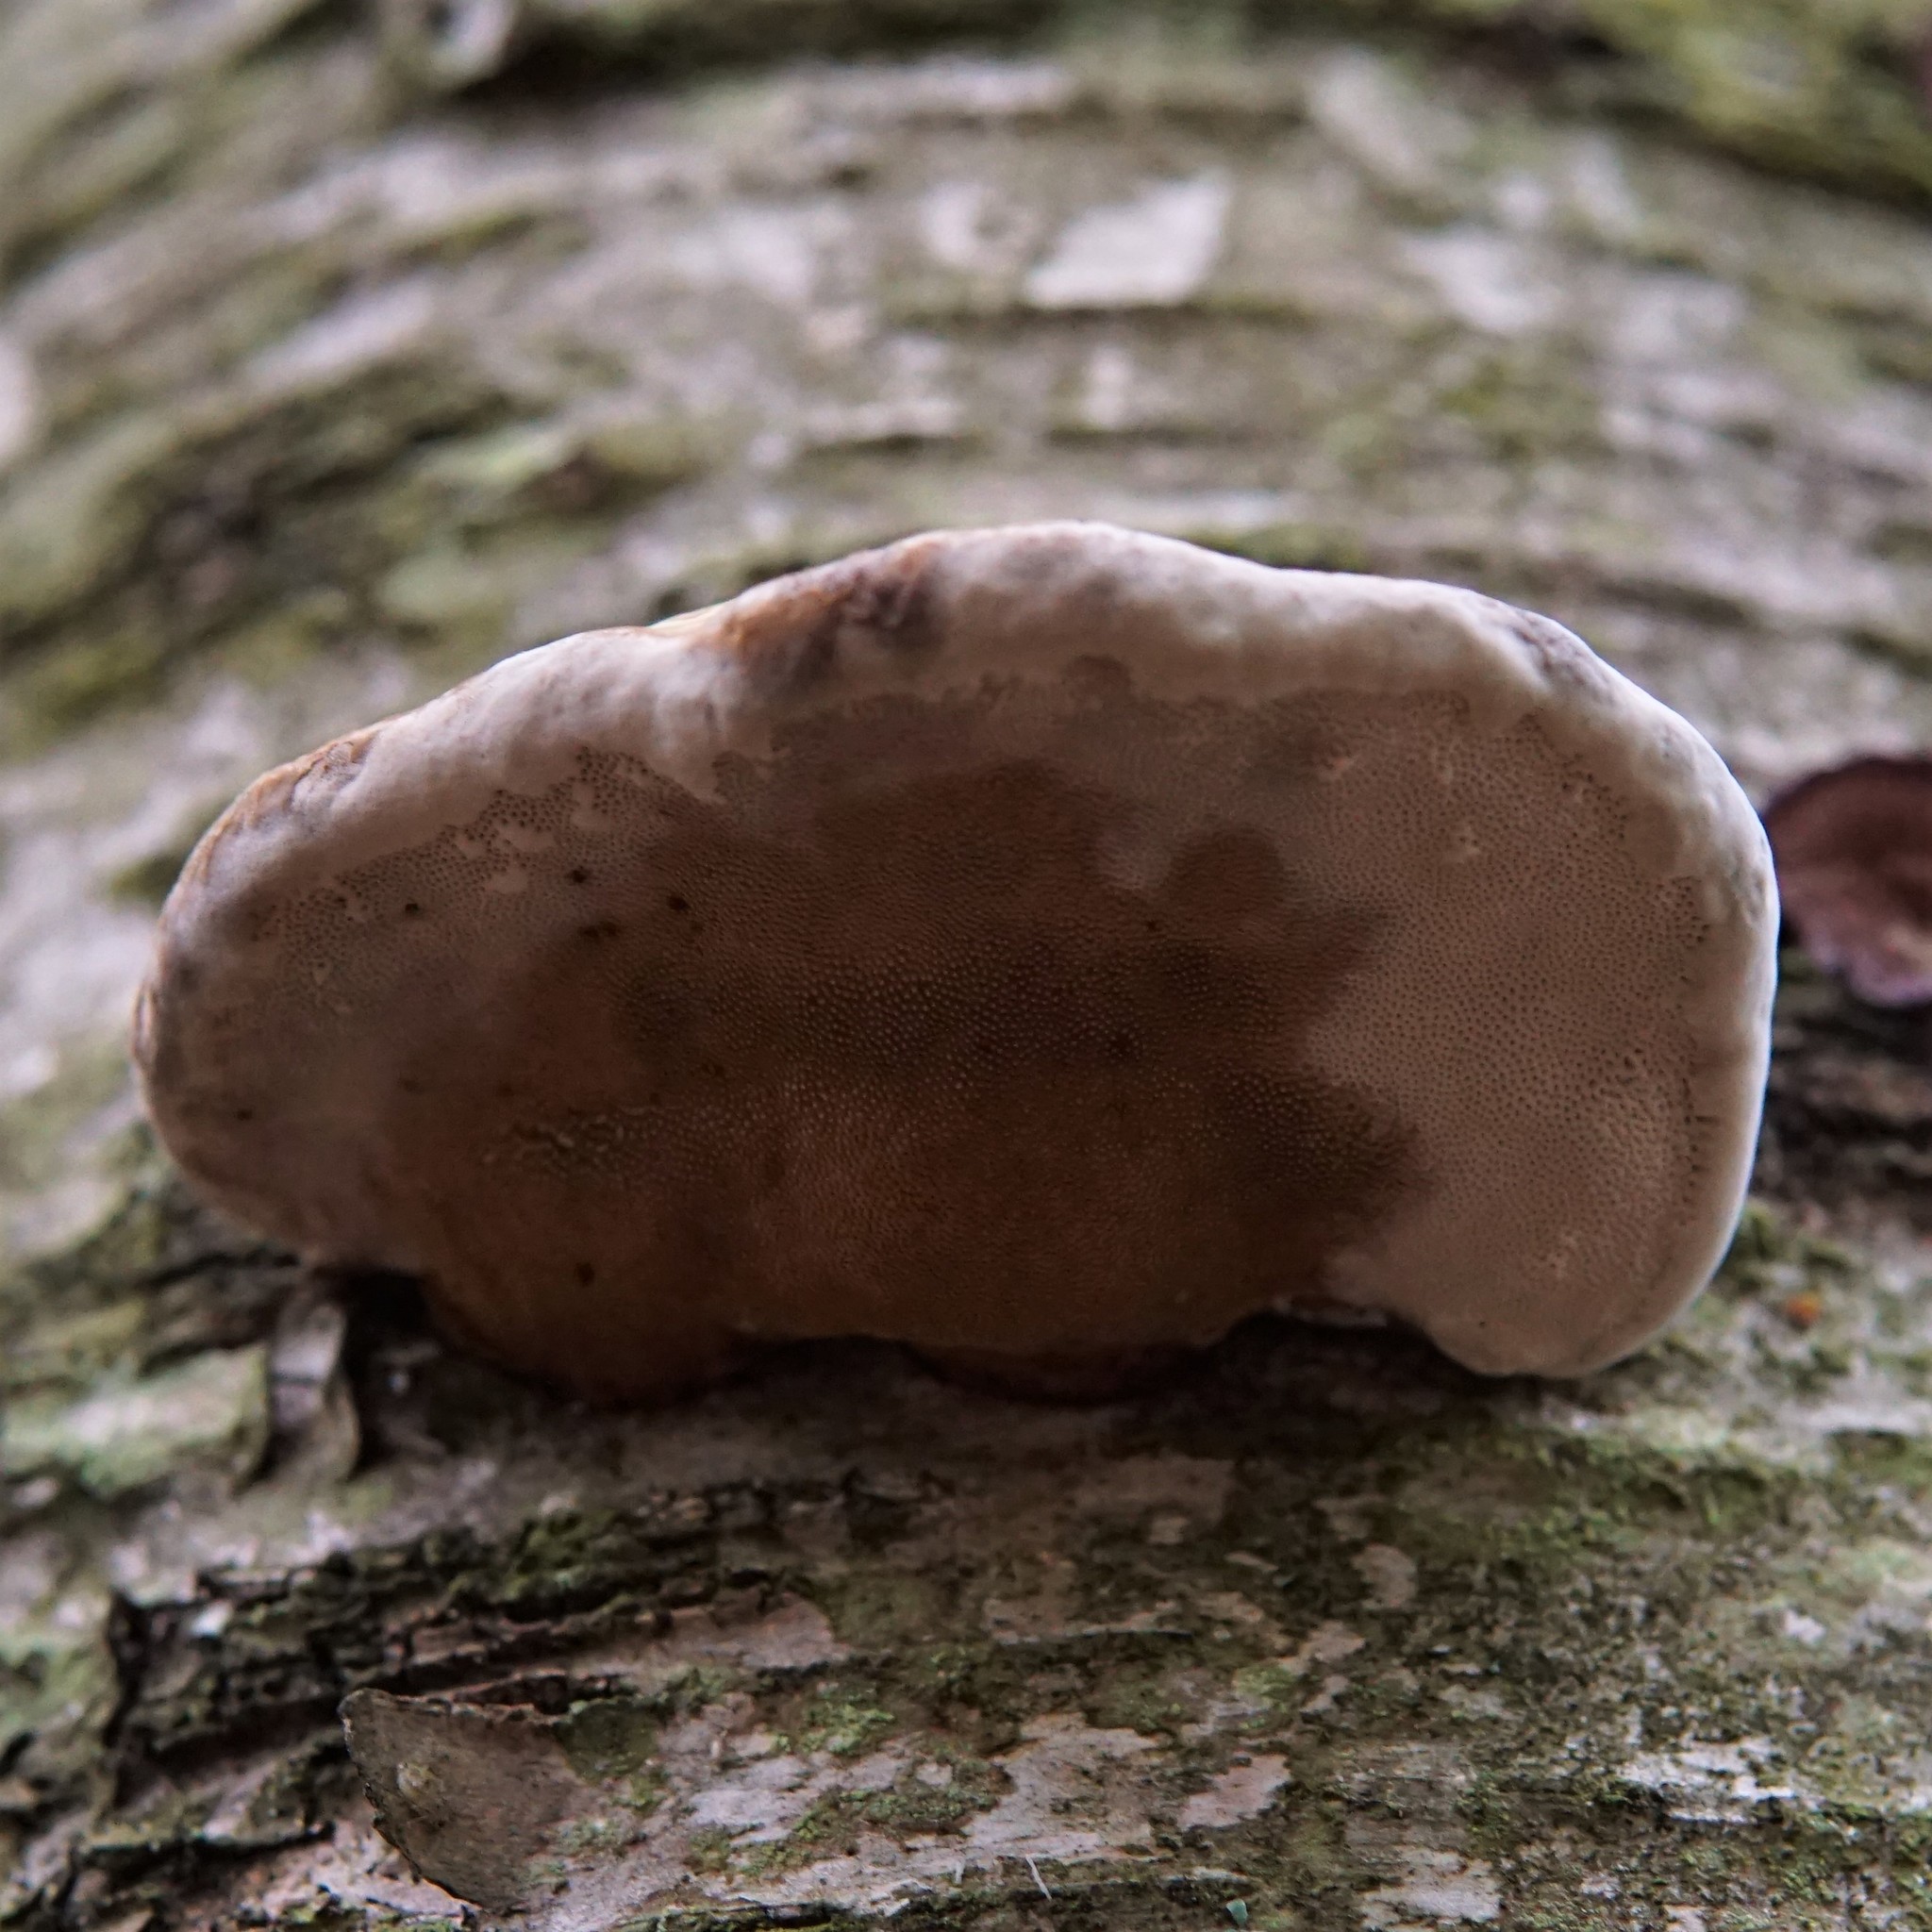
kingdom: Fungi
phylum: Basidiomycota
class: Agaricomycetes
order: Polyporales
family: Polyporaceae
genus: Fomes
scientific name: Fomes fomentarius
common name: Hoof fungus
